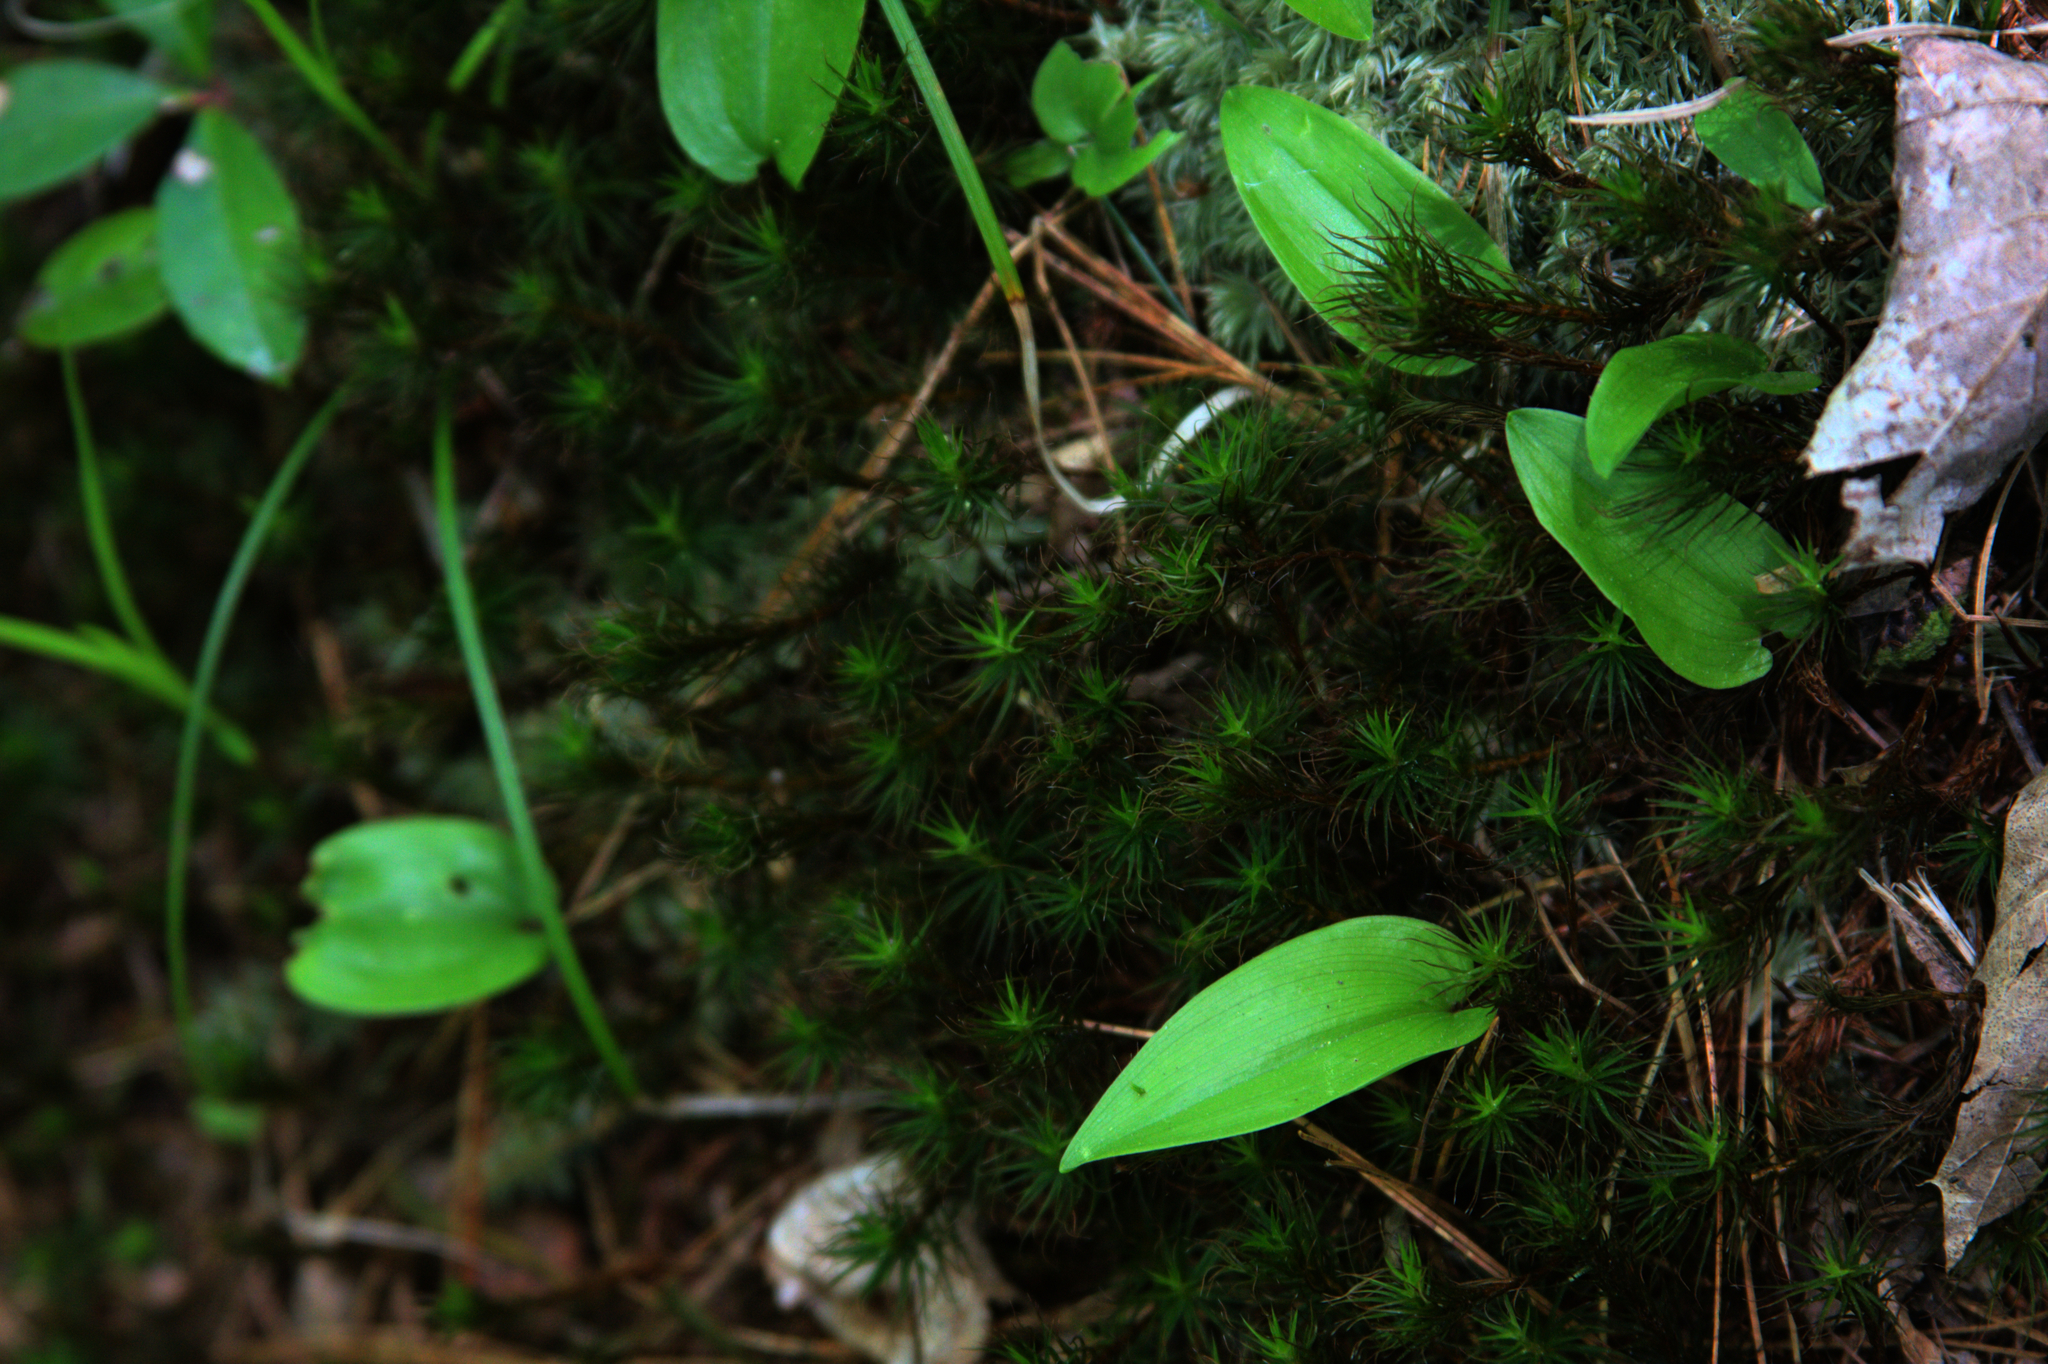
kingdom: Plantae
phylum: Tracheophyta
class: Liliopsida
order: Asparagales
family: Asparagaceae
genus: Maianthemum
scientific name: Maianthemum canadense
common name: False lily-of-the-valley
